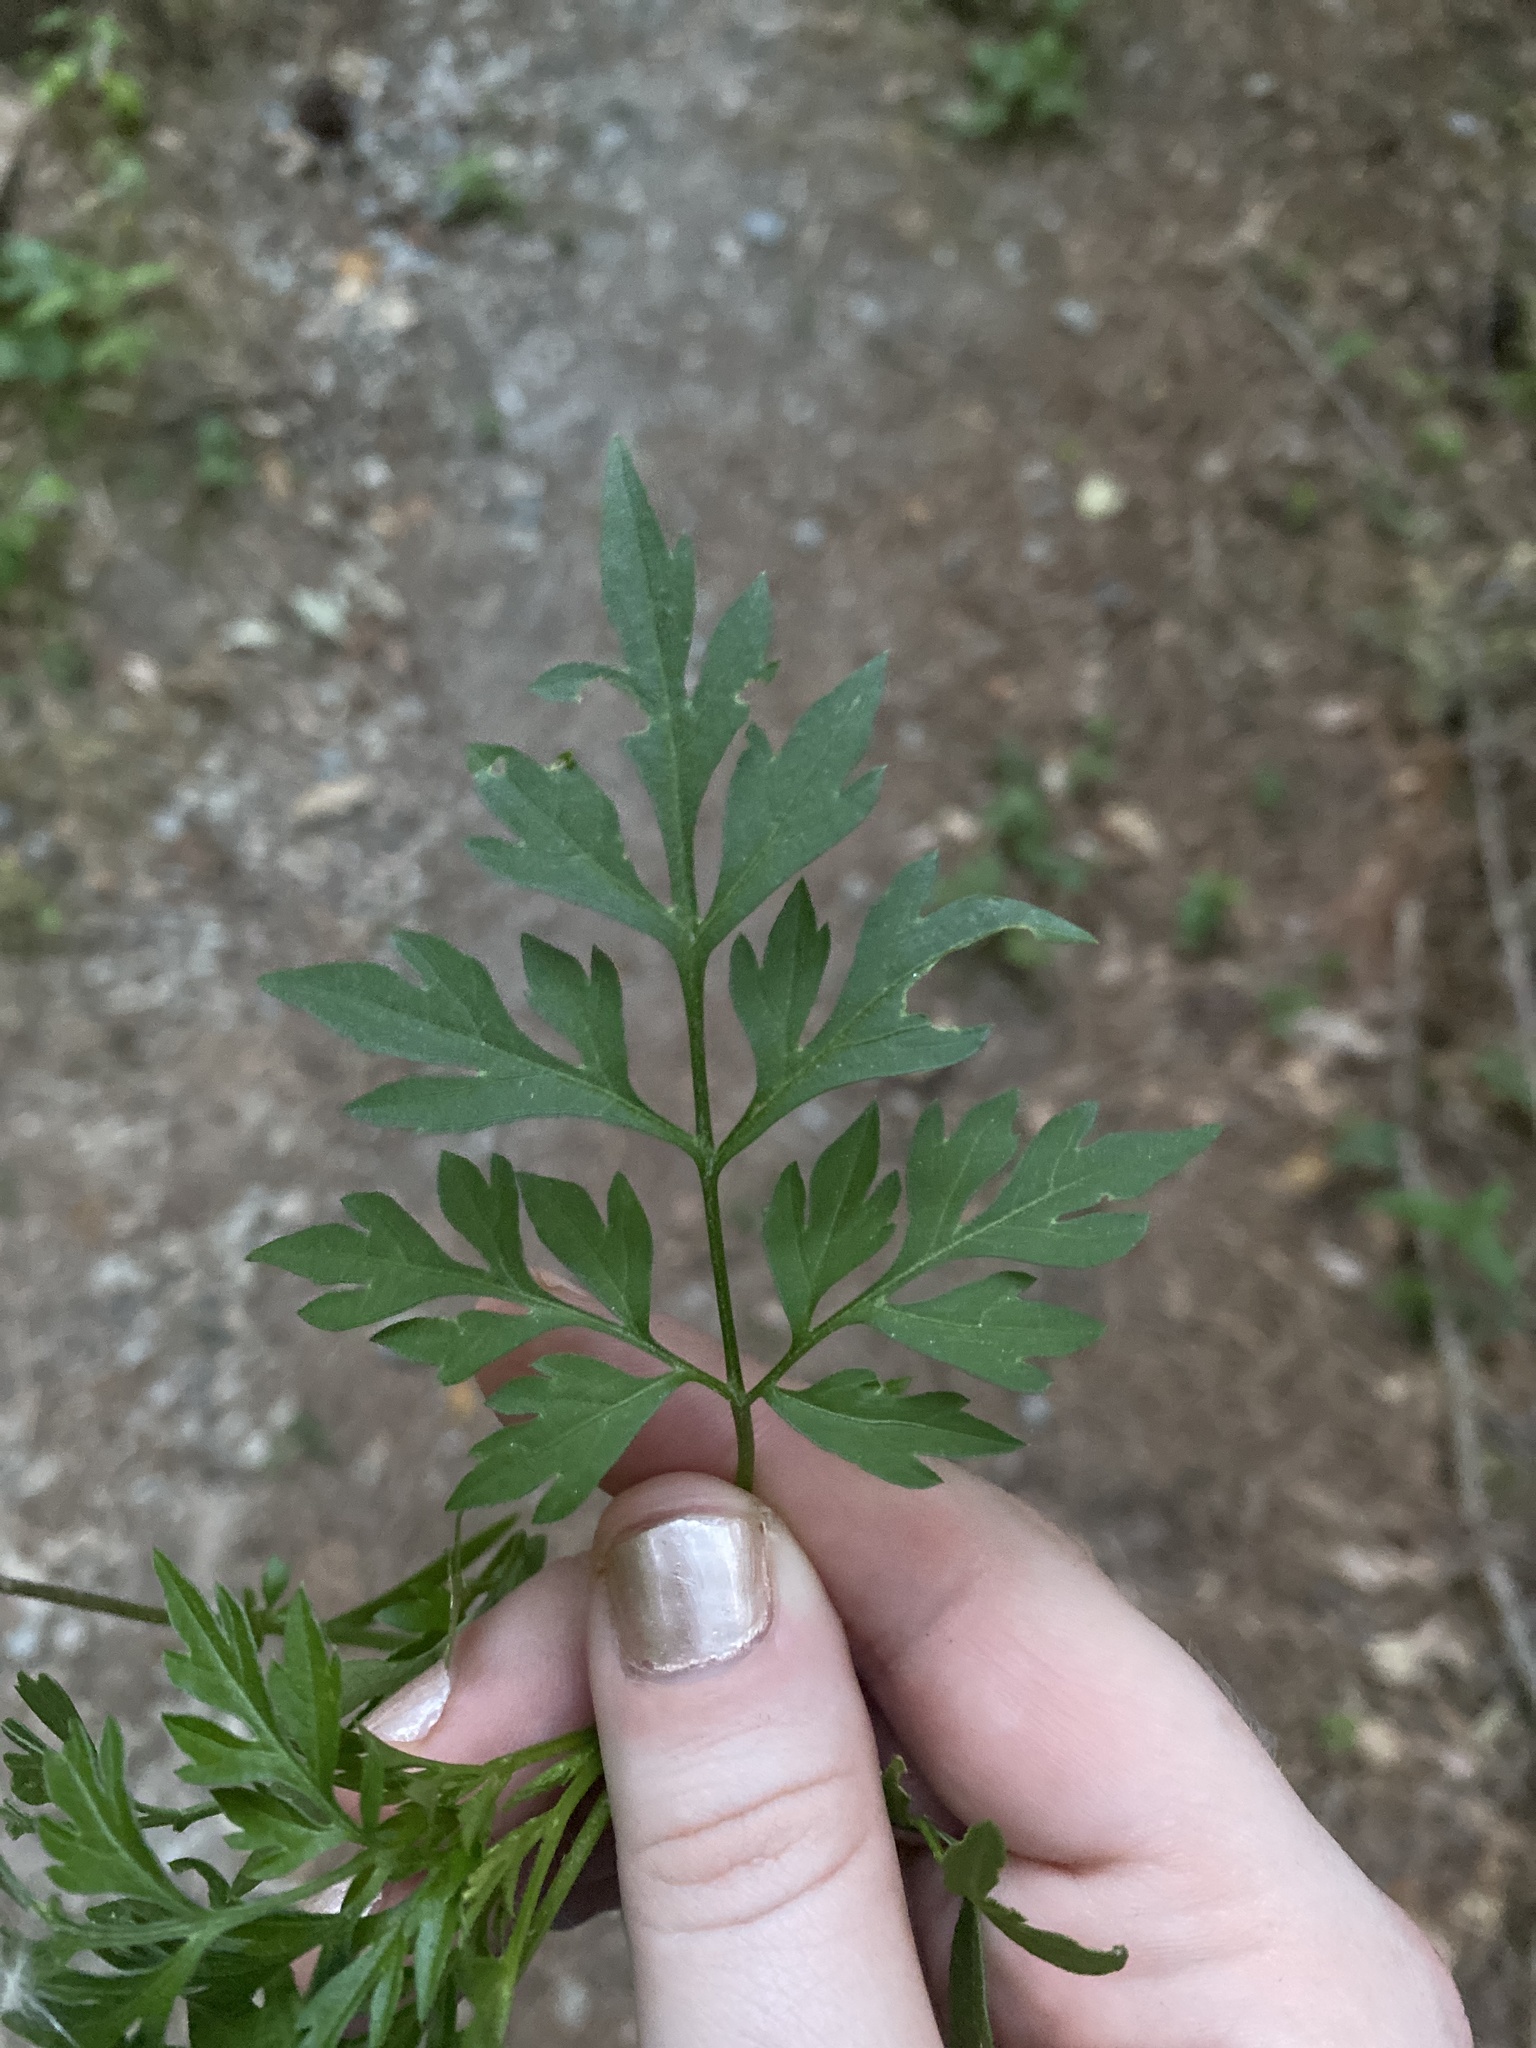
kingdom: Plantae
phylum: Tracheophyta
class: Magnoliopsida
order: Asterales
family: Asteraceae
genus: Bidens
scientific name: Bidens bipinnata
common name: Spanish-needles
